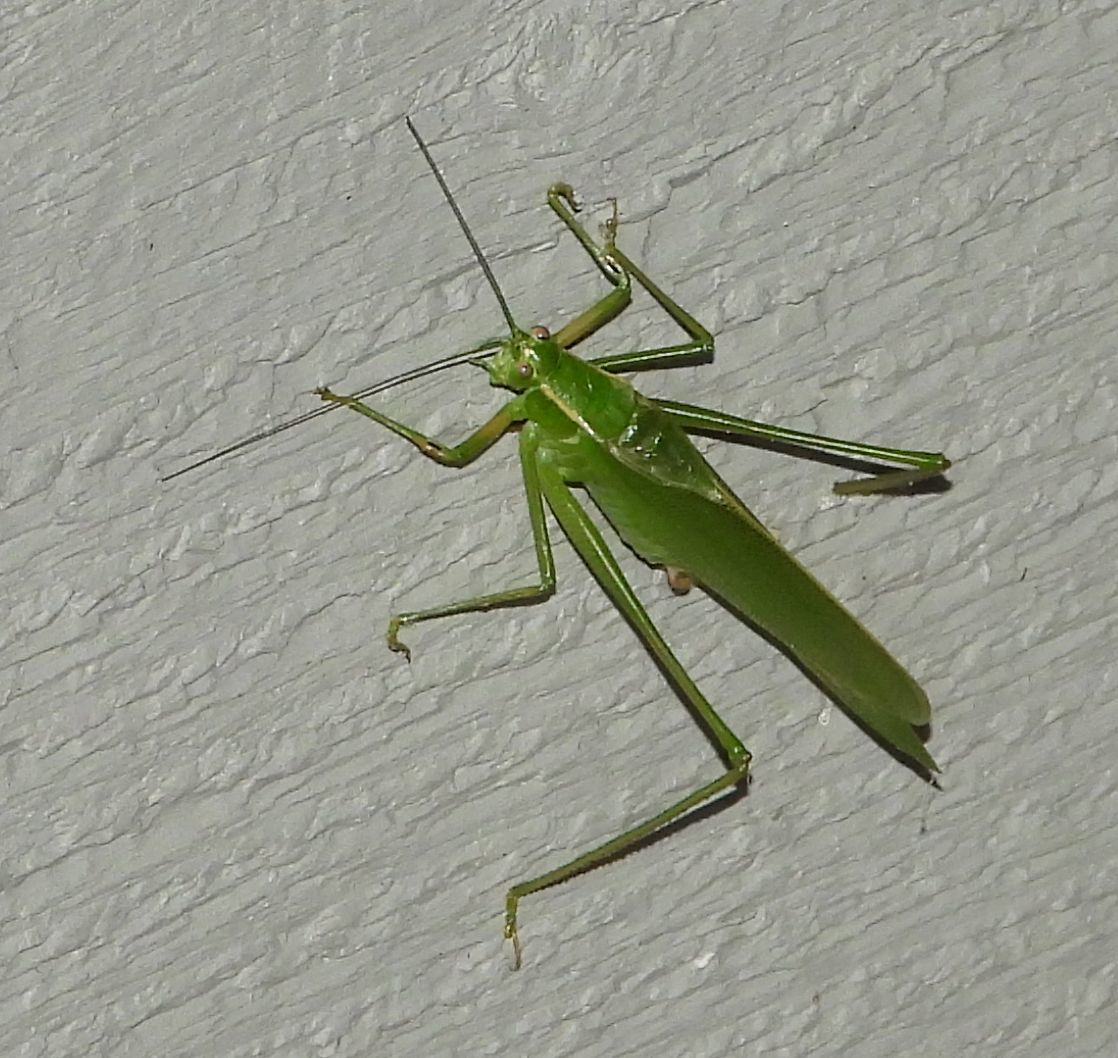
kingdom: Animalia
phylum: Arthropoda
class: Insecta
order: Orthoptera
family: Tettigoniidae
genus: Scudderia
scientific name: Scudderia septentrionalis
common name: Northern bush-katydid
